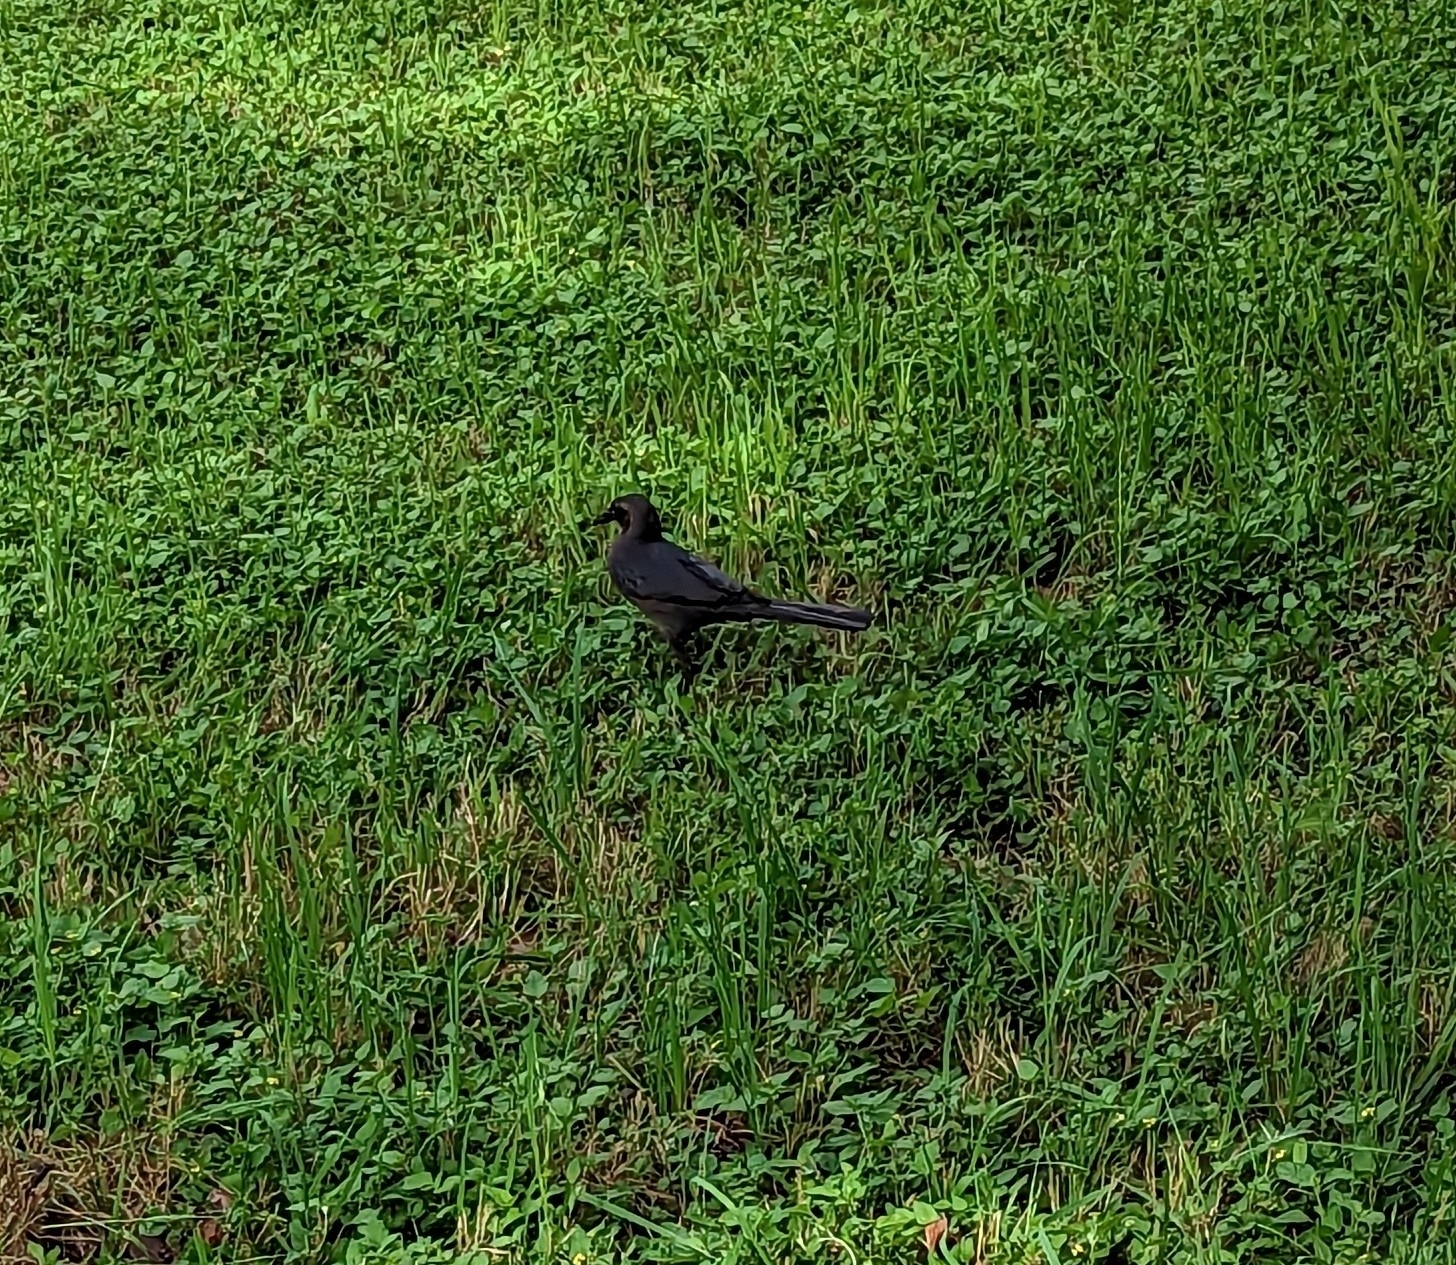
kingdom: Animalia
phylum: Chordata
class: Aves
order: Passeriformes
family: Icteridae
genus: Quiscalus
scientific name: Quiscalus mexicanus
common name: Great-tailed grackle
